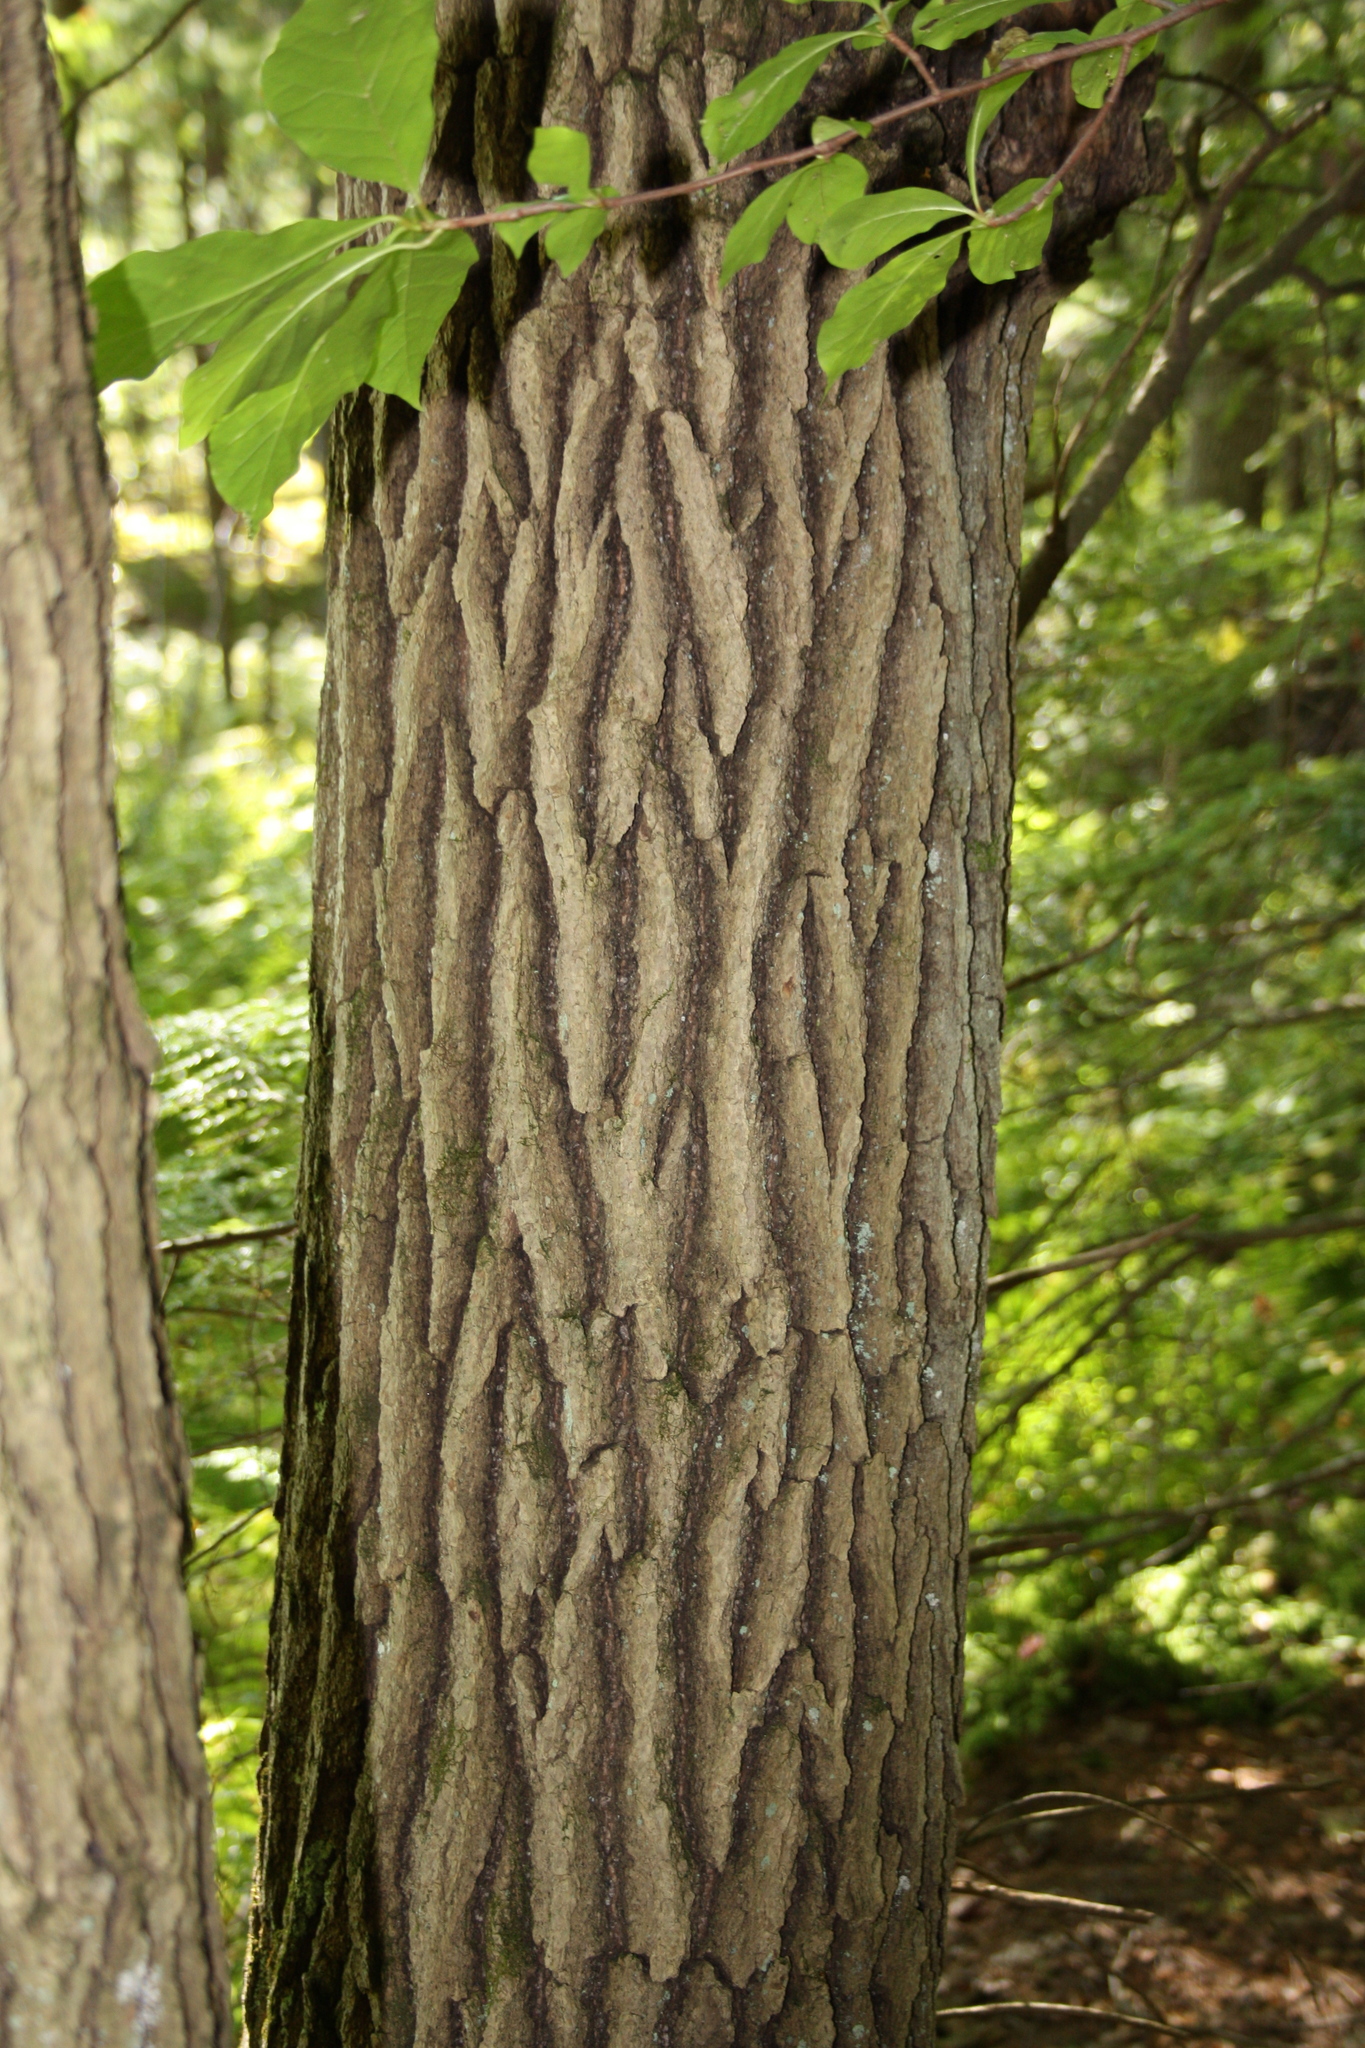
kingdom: Plantae
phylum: Tracheophyta
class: Magnoliopsida
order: Cornales
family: Nyssaceae
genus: Nyssa
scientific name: Nyssa sylvatica
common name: Black tupelo
